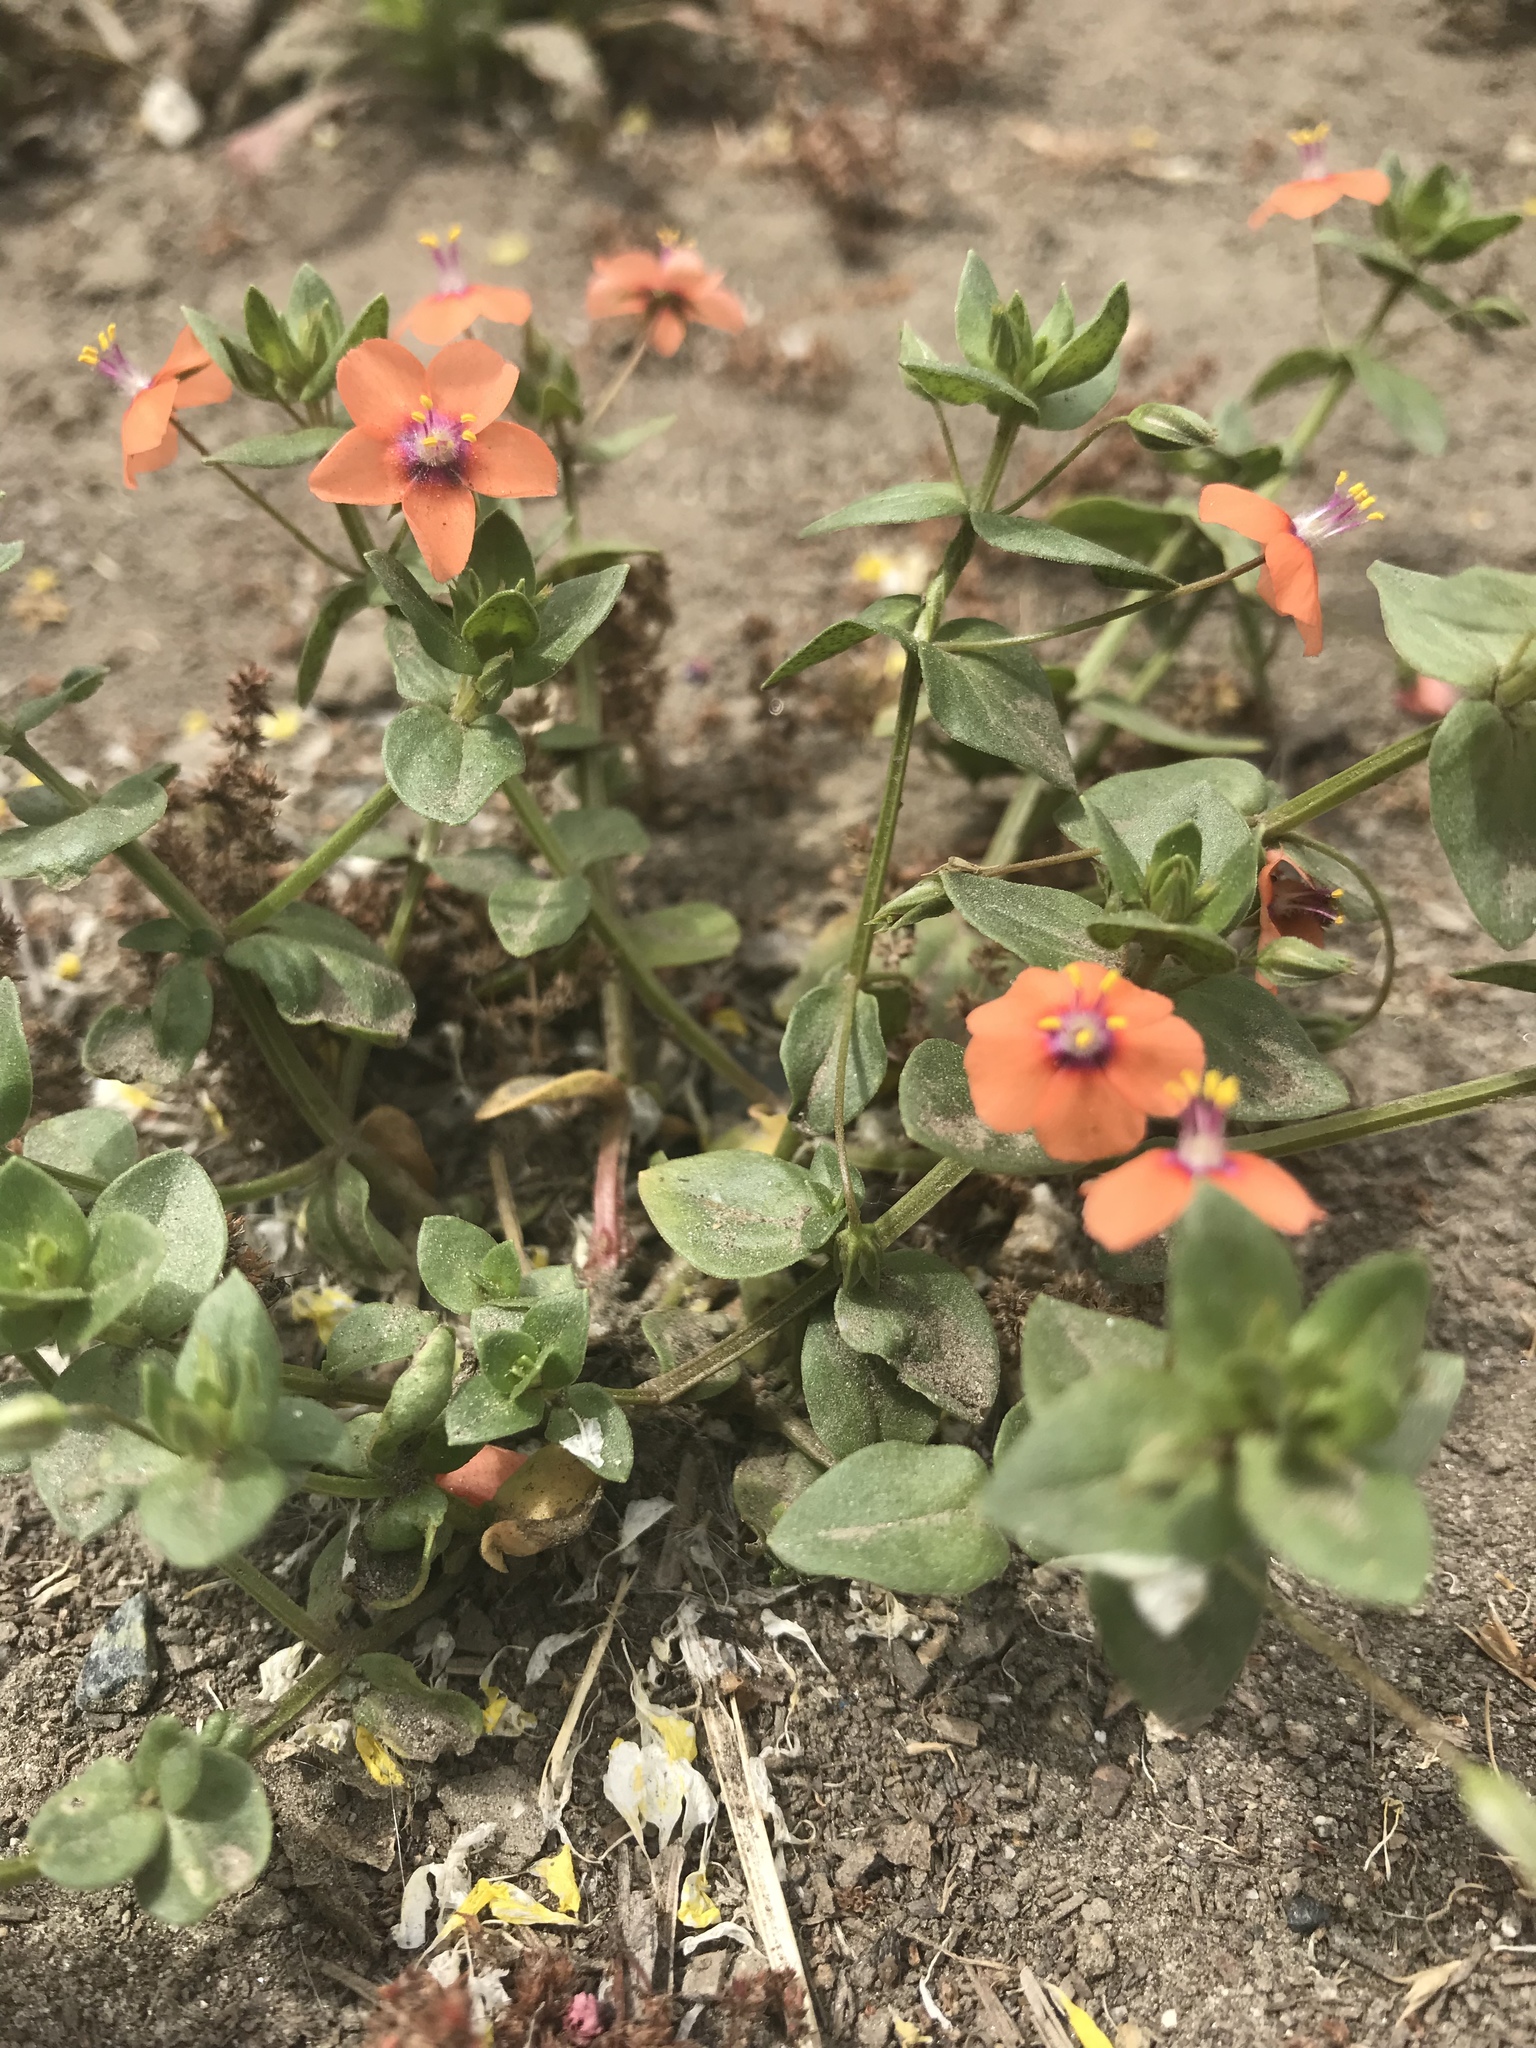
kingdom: Plantae
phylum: Tracheophyta
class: Magnoliopsida
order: Ericales
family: Primulaceae
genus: Lysimachia
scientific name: Lysimachia arvensis
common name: Scarlet pimpernel
